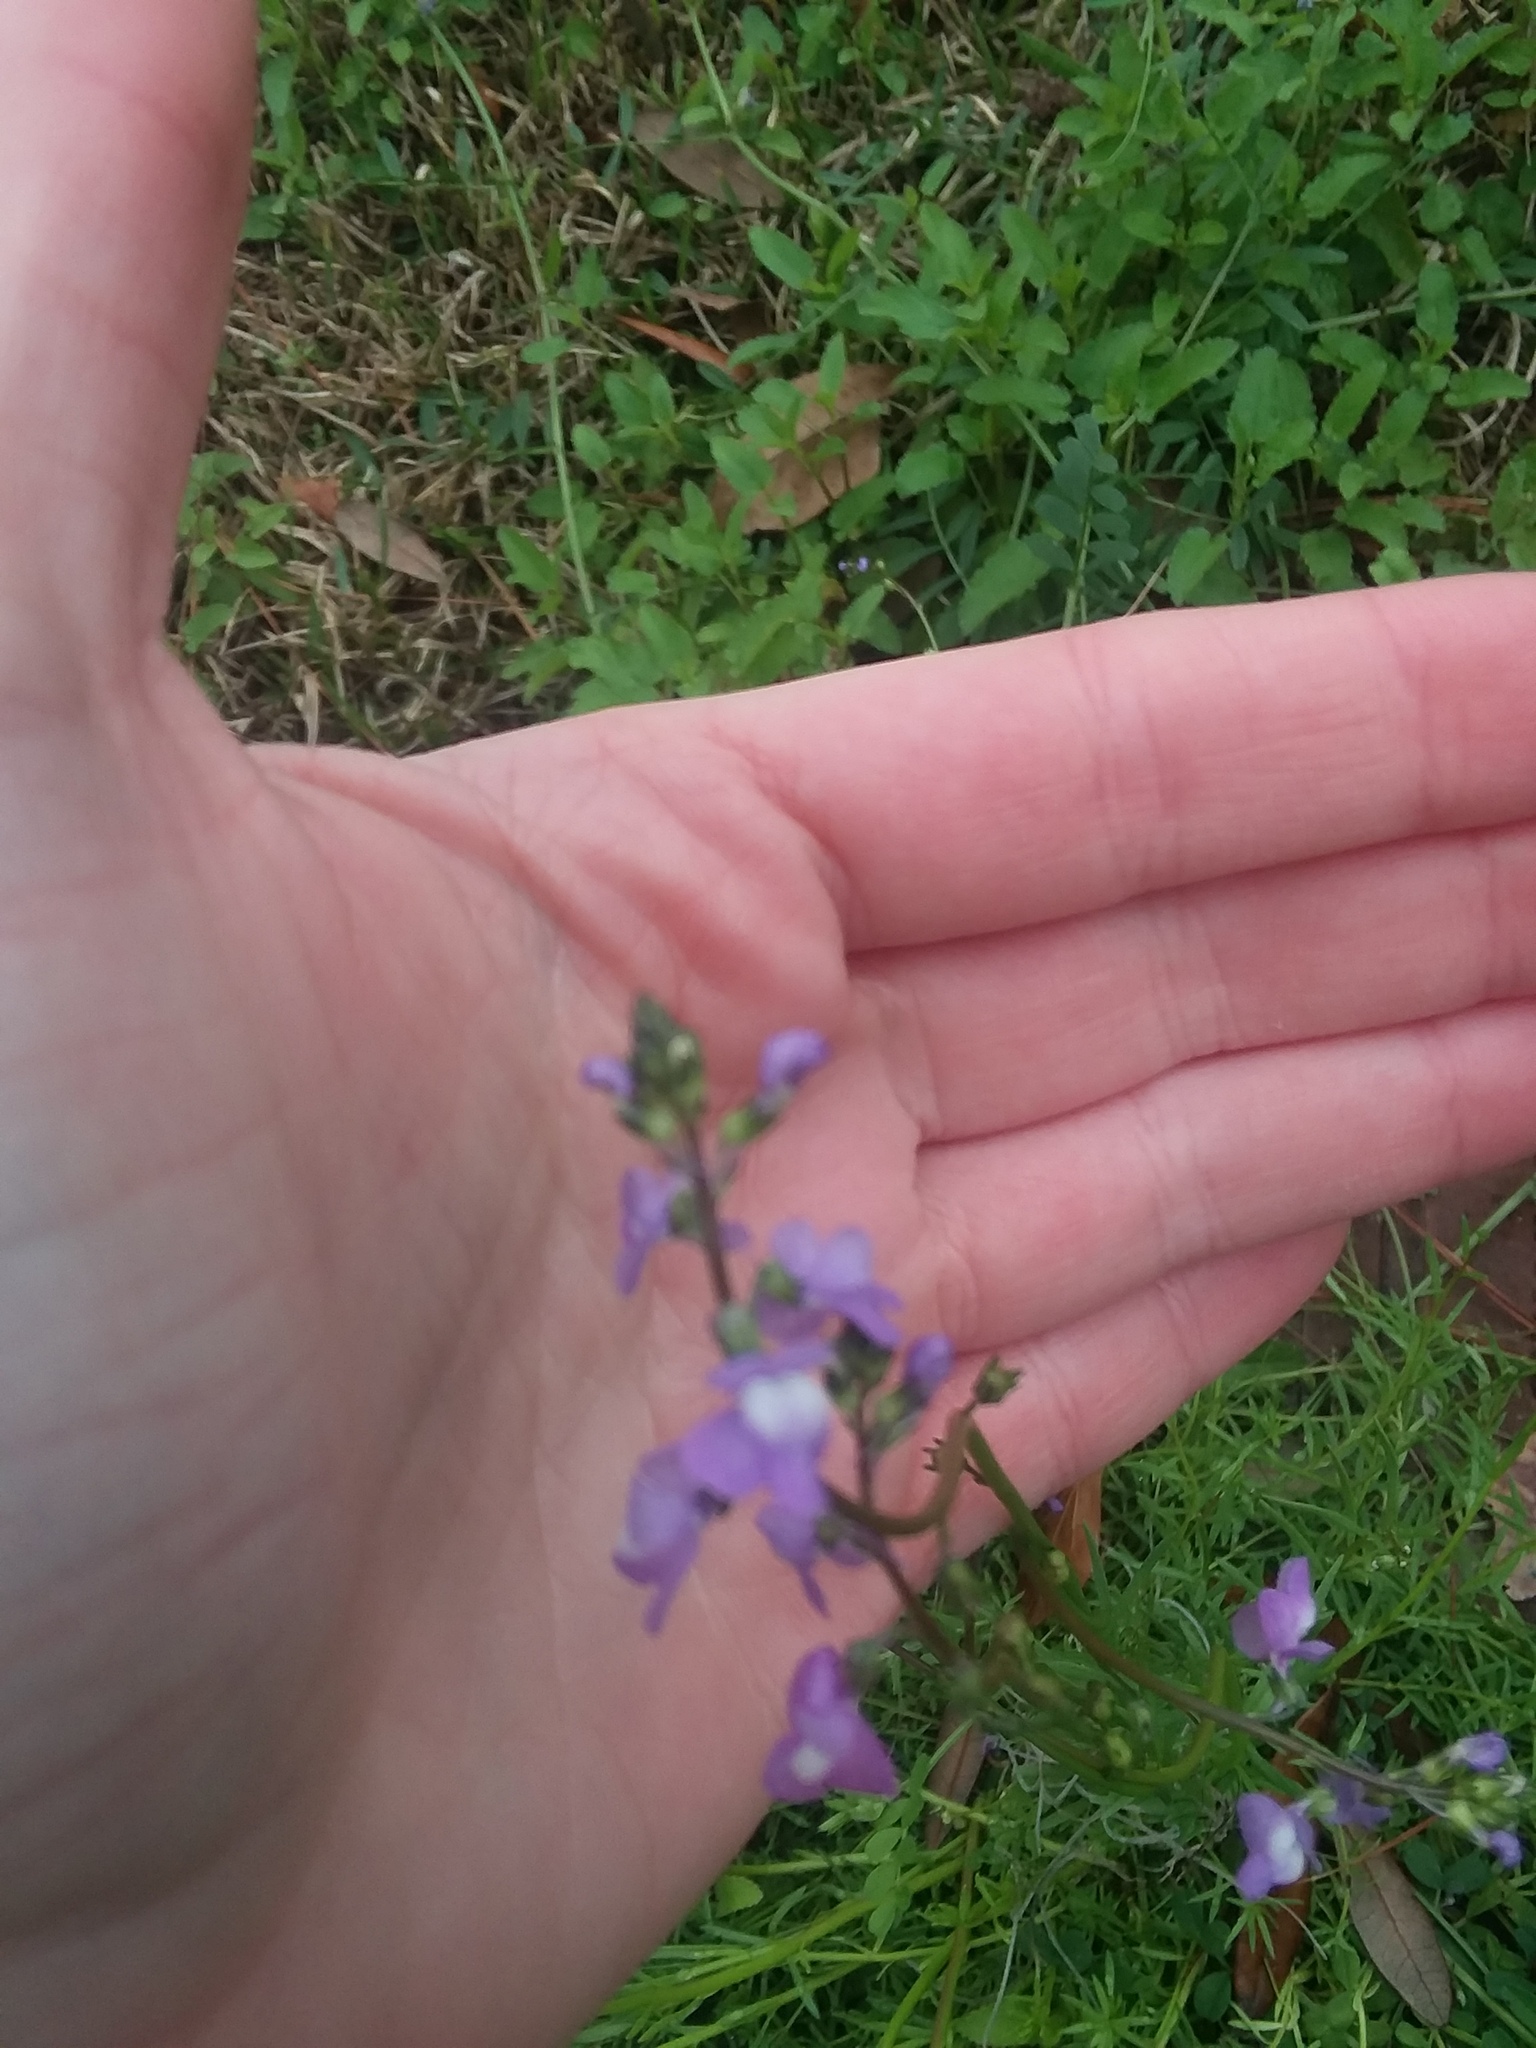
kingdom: Plantae
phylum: Tracheophyta
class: Magnoliopsida
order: Lamiales
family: Plantaginaceae
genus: Nuttallanthus
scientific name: Nuttallanthus canadensis
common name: Blue toadflax
